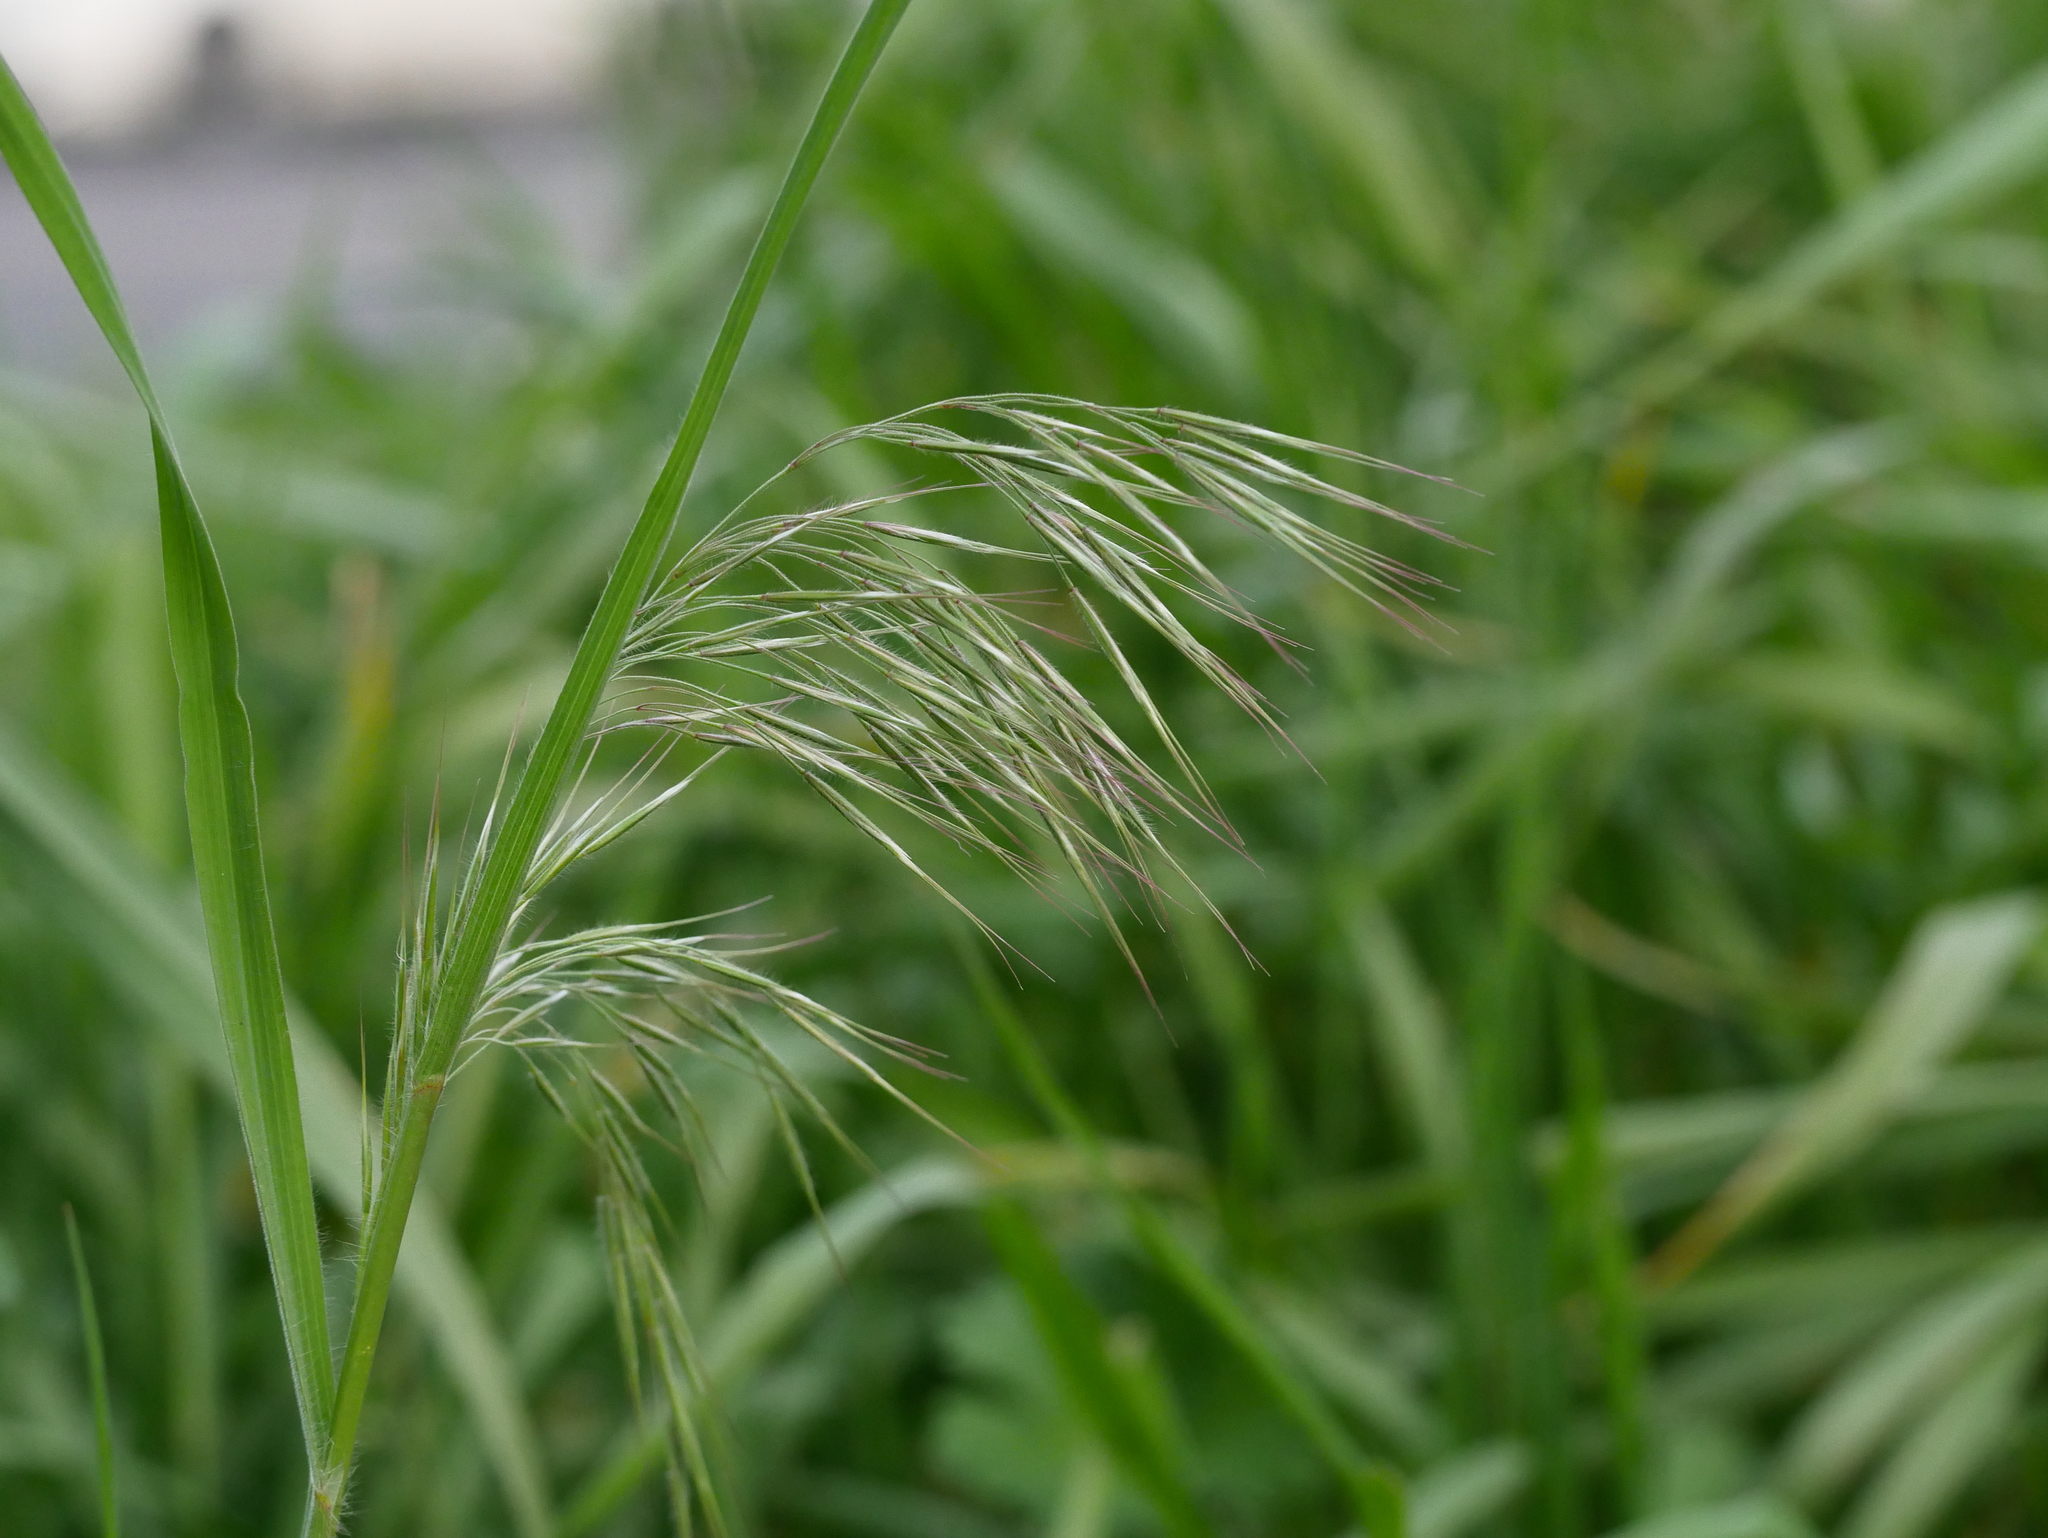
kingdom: Plantae
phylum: Tracheophyta
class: Liliopsida
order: Poales
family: Poaceae
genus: Bromus
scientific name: Bromus tectorum
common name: Cheatgrass
